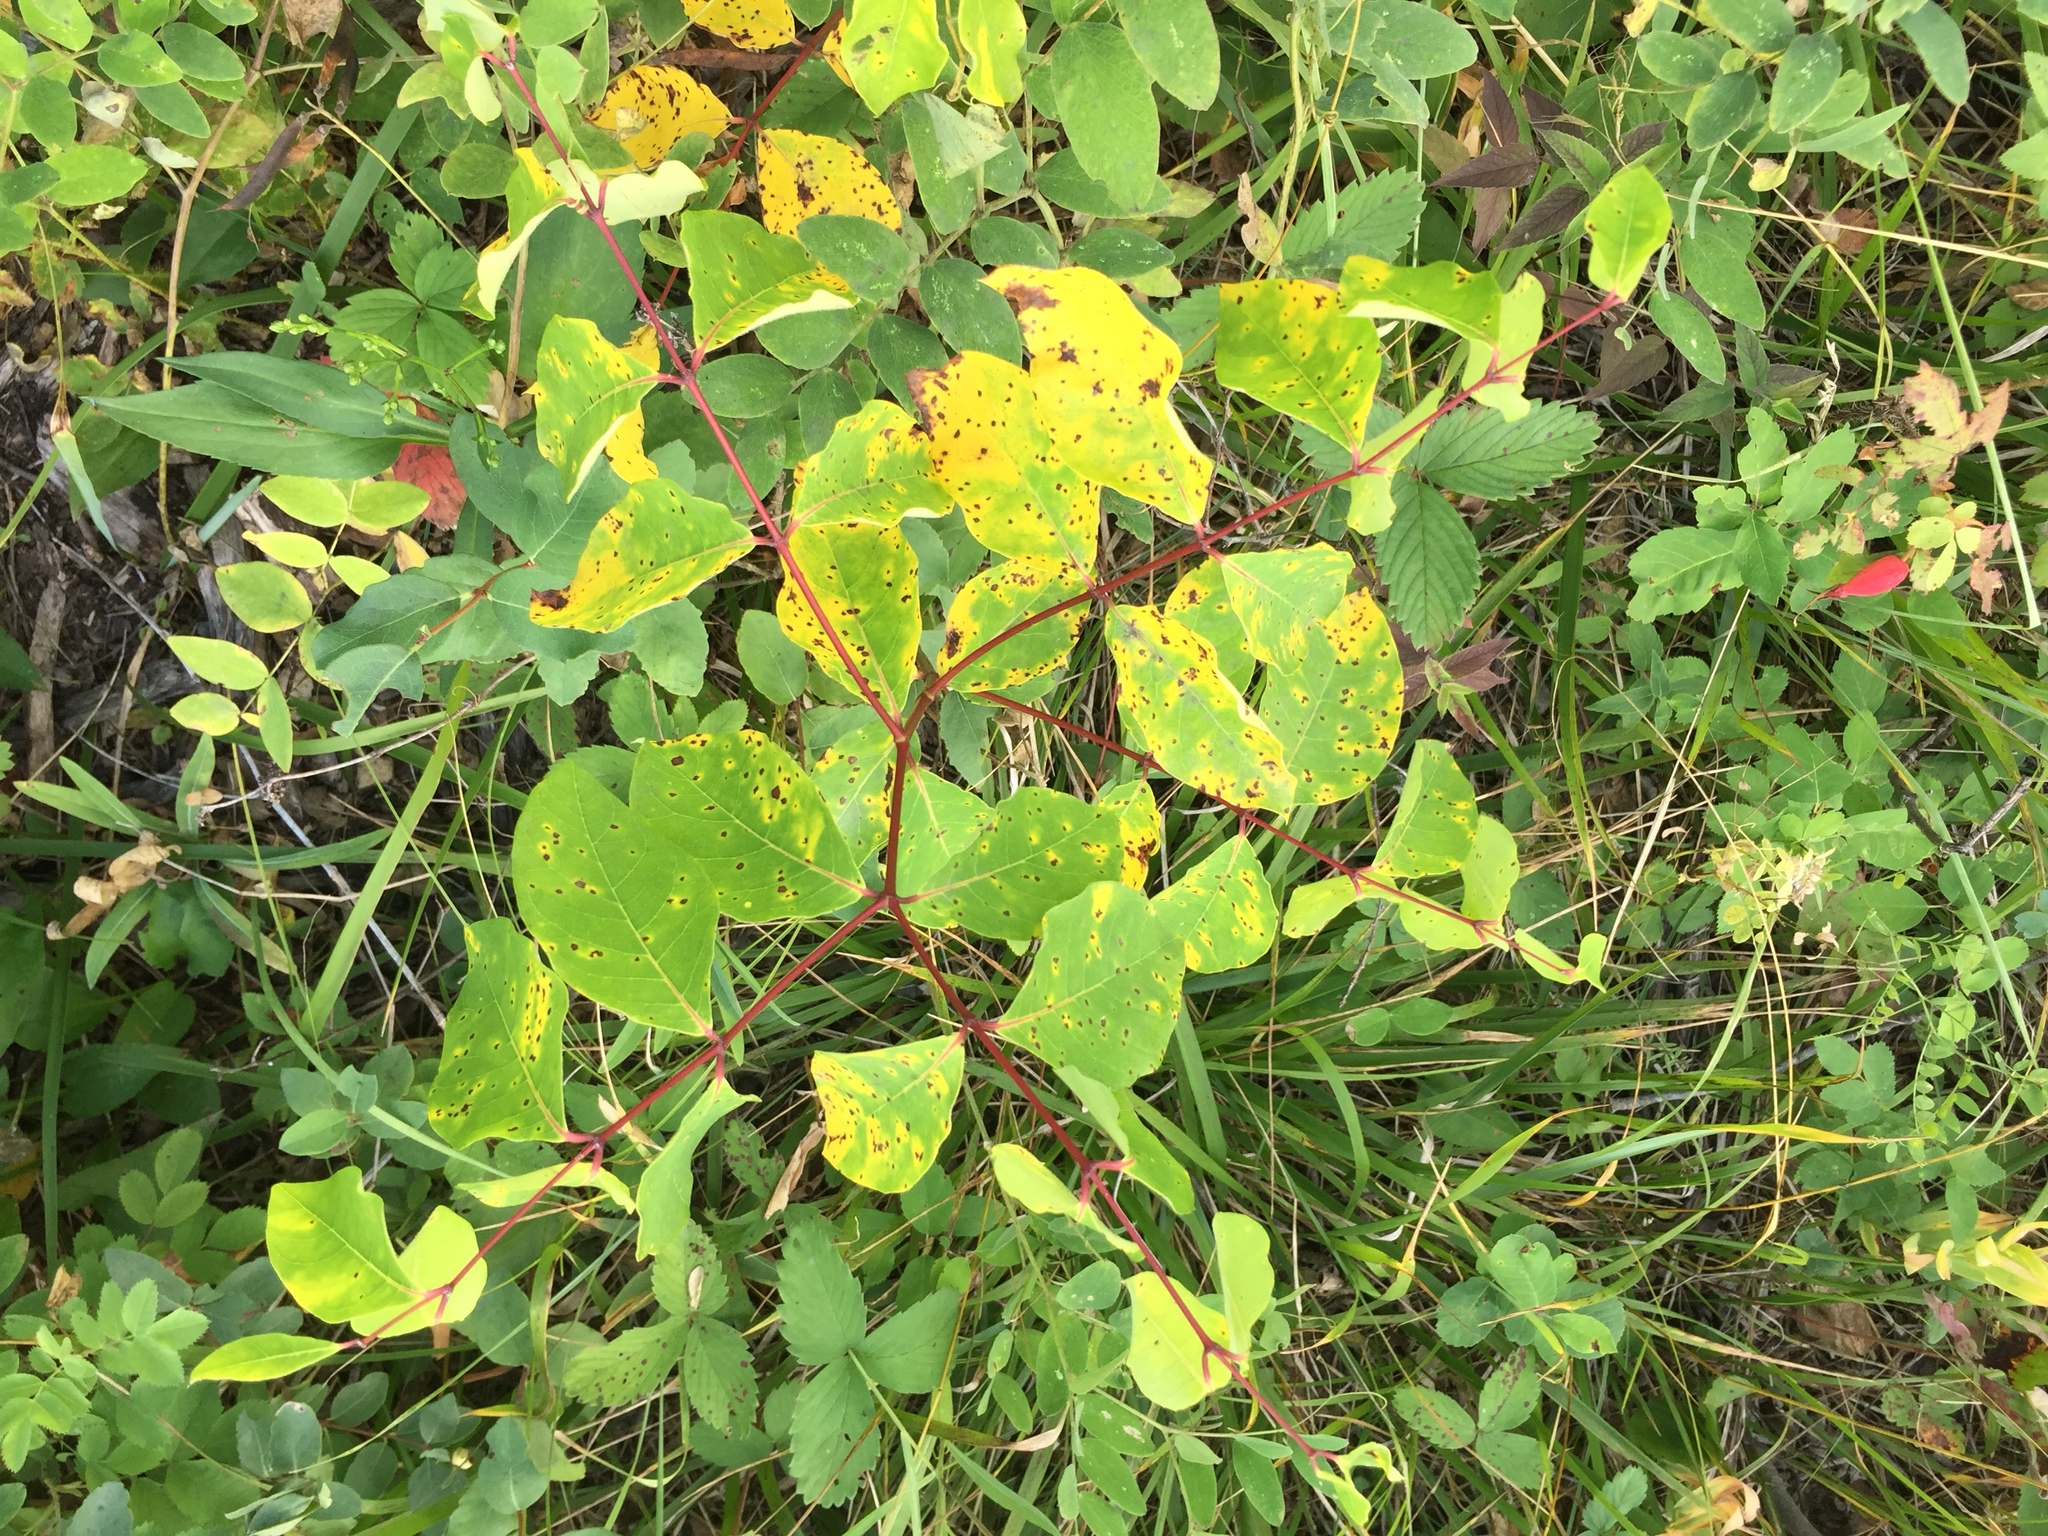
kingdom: Plantae
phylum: Tracheophyta
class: Magnoliopsida
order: Gentianales
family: Apocynaceae
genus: Apocynum
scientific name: Apocynum androsaemifolium
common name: Spreading dogbane
